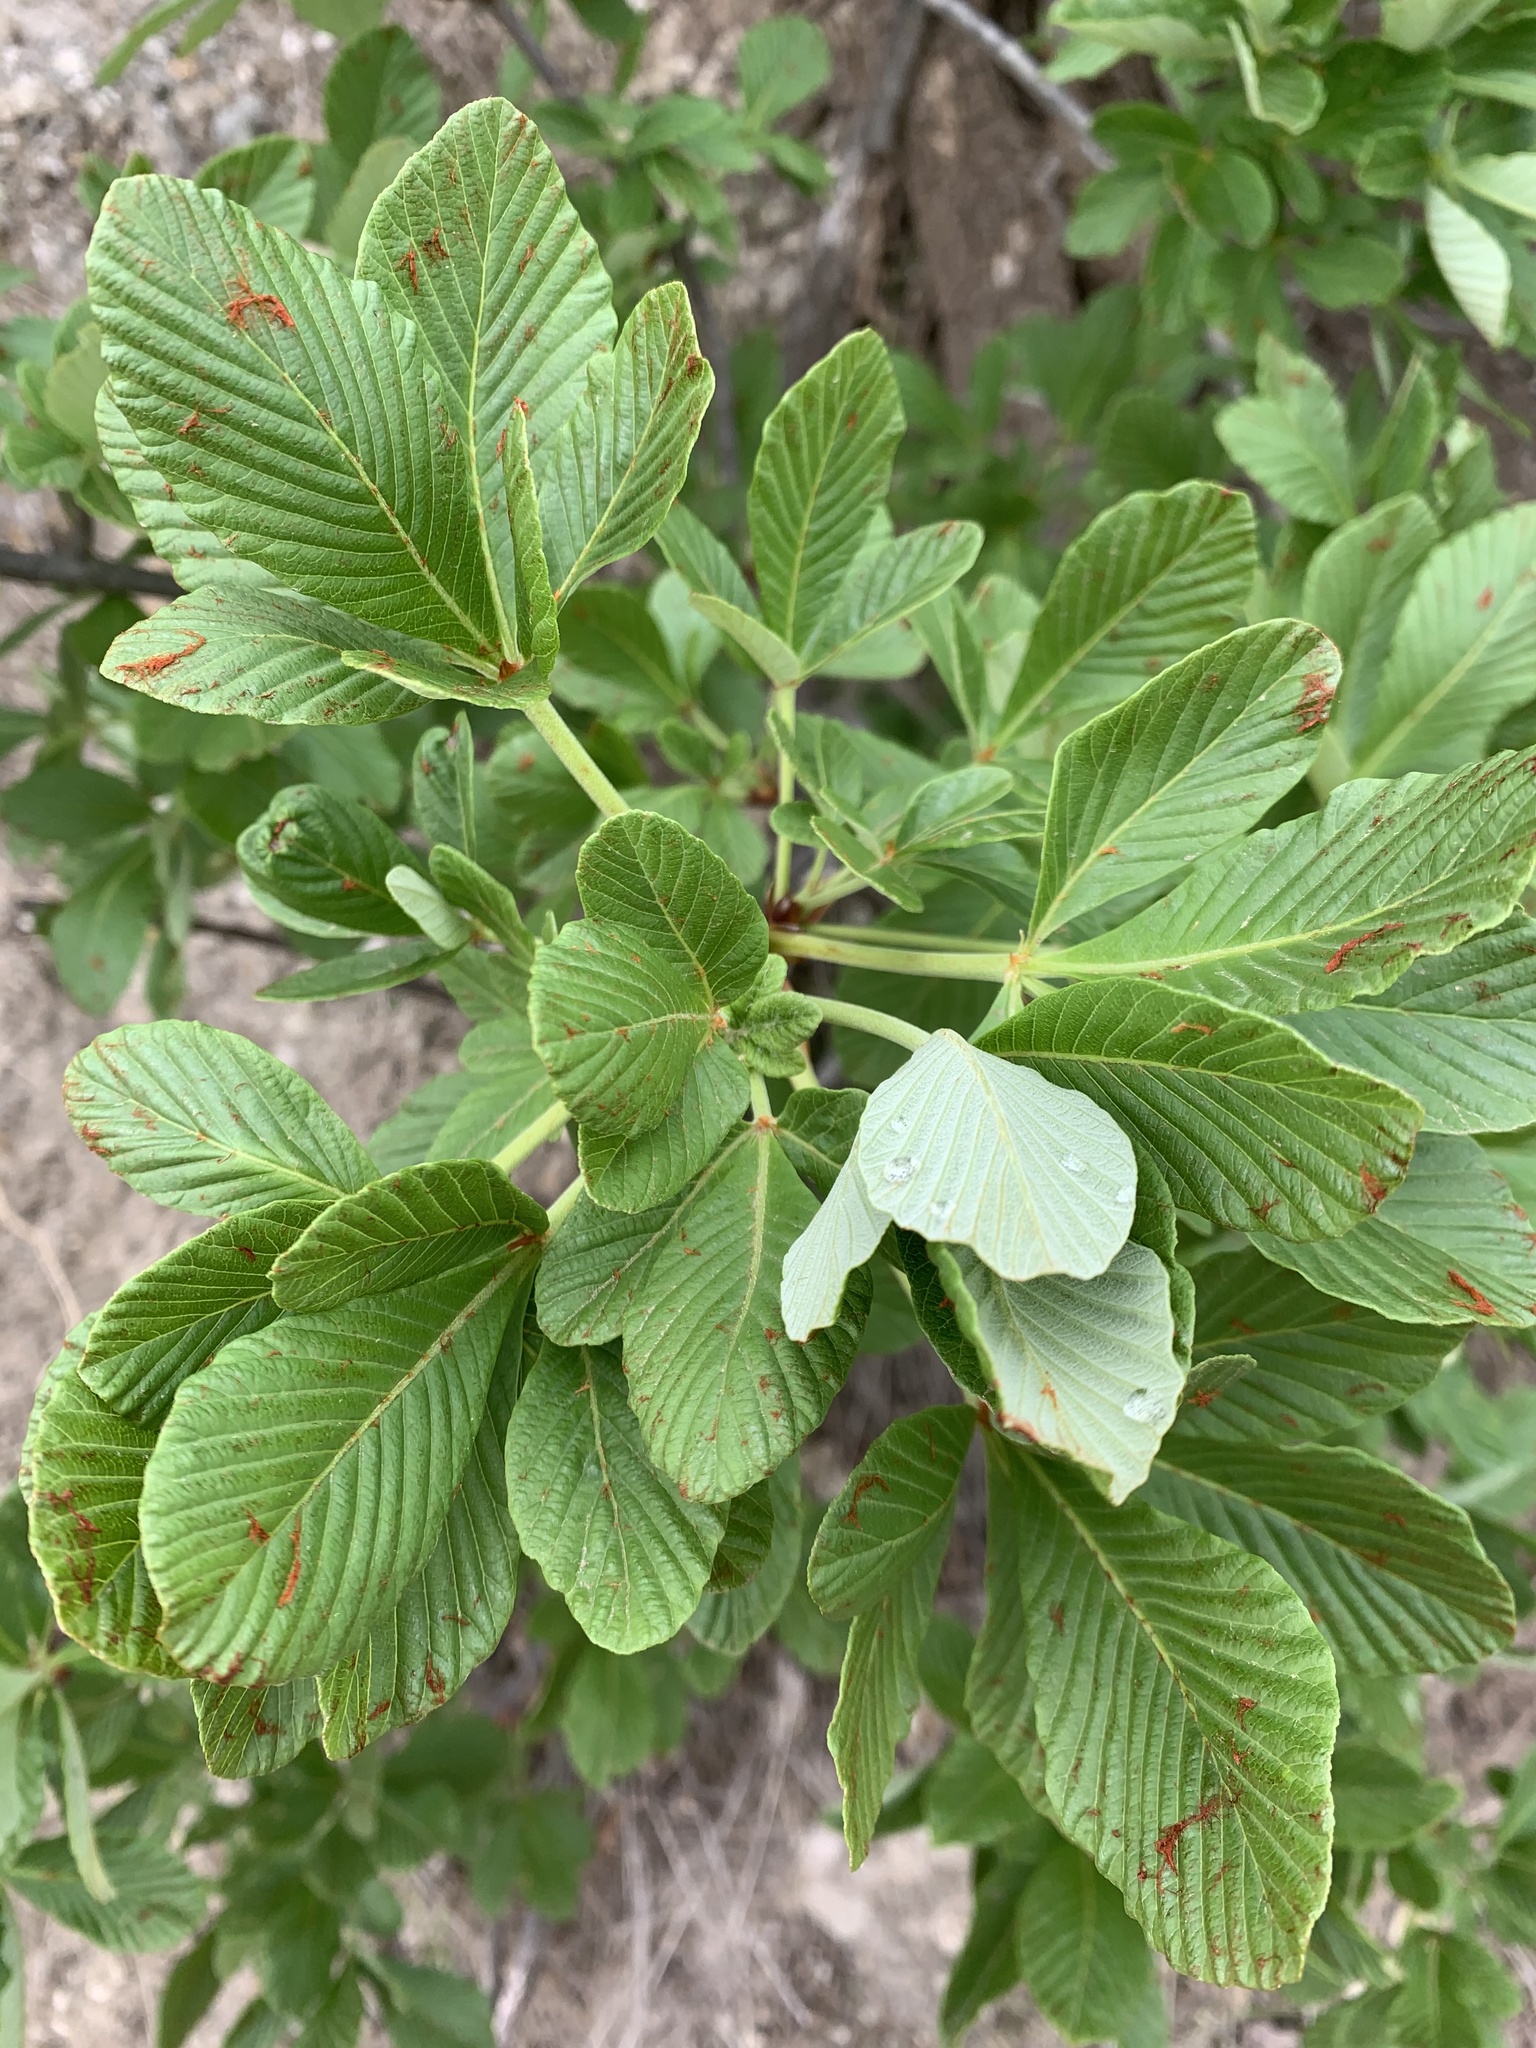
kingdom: Plantae
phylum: Tracheophyta
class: Magnoliopsida
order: Sapindales
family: Sapindaceae
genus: Aesculus
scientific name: Aesculus parryi
